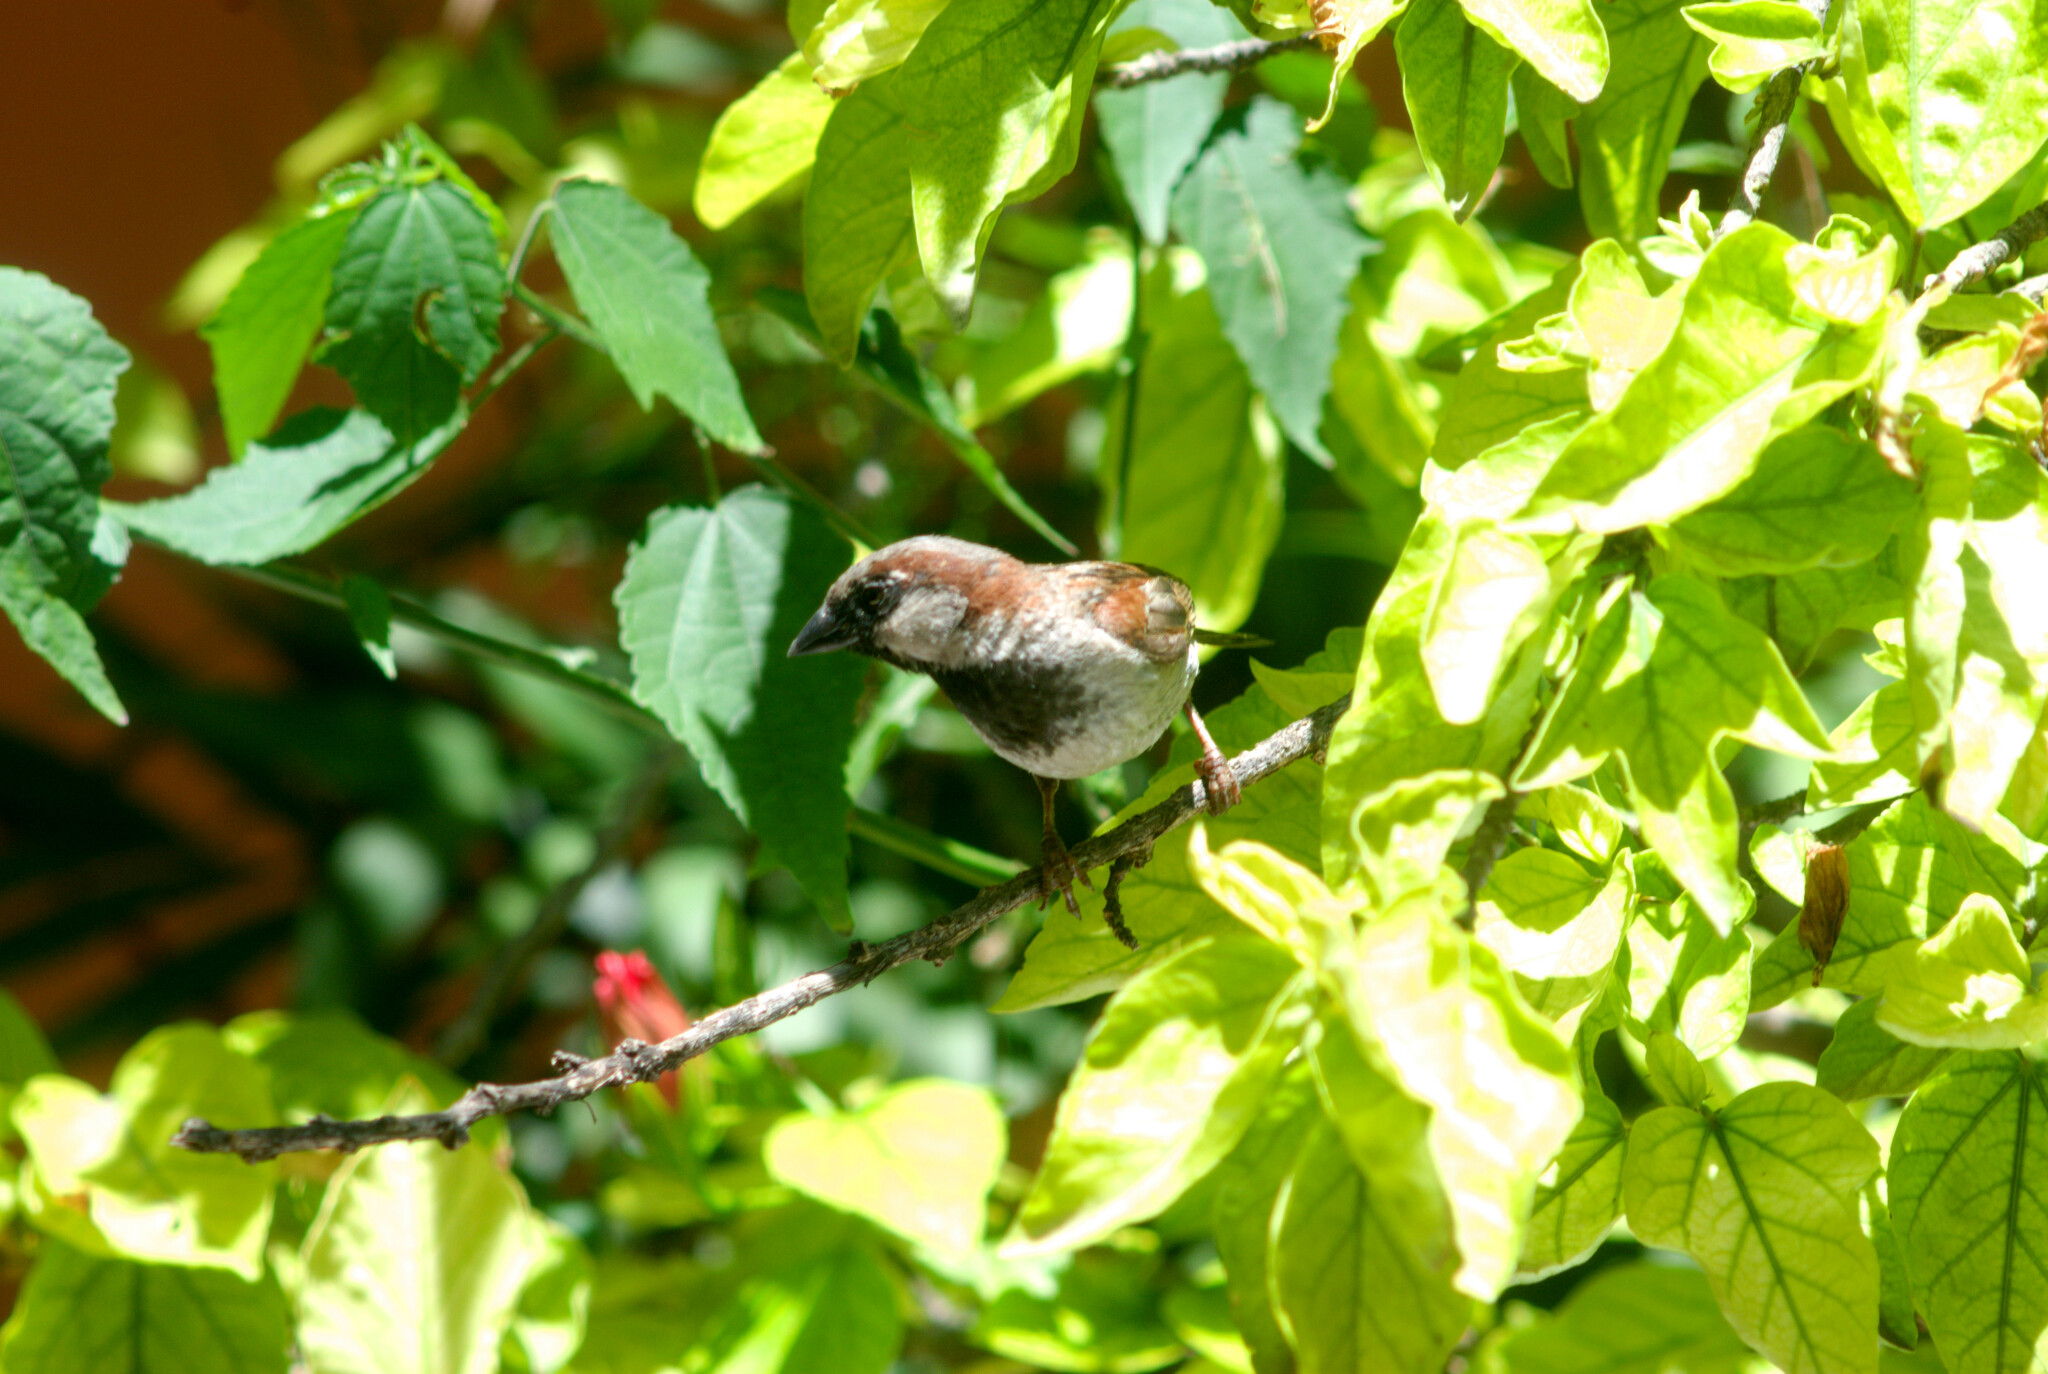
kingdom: Animalia
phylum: Chordata
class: Aves
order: Passeriformes
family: Passeridae
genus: Passer
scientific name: Passer domesticus
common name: House sparrow
